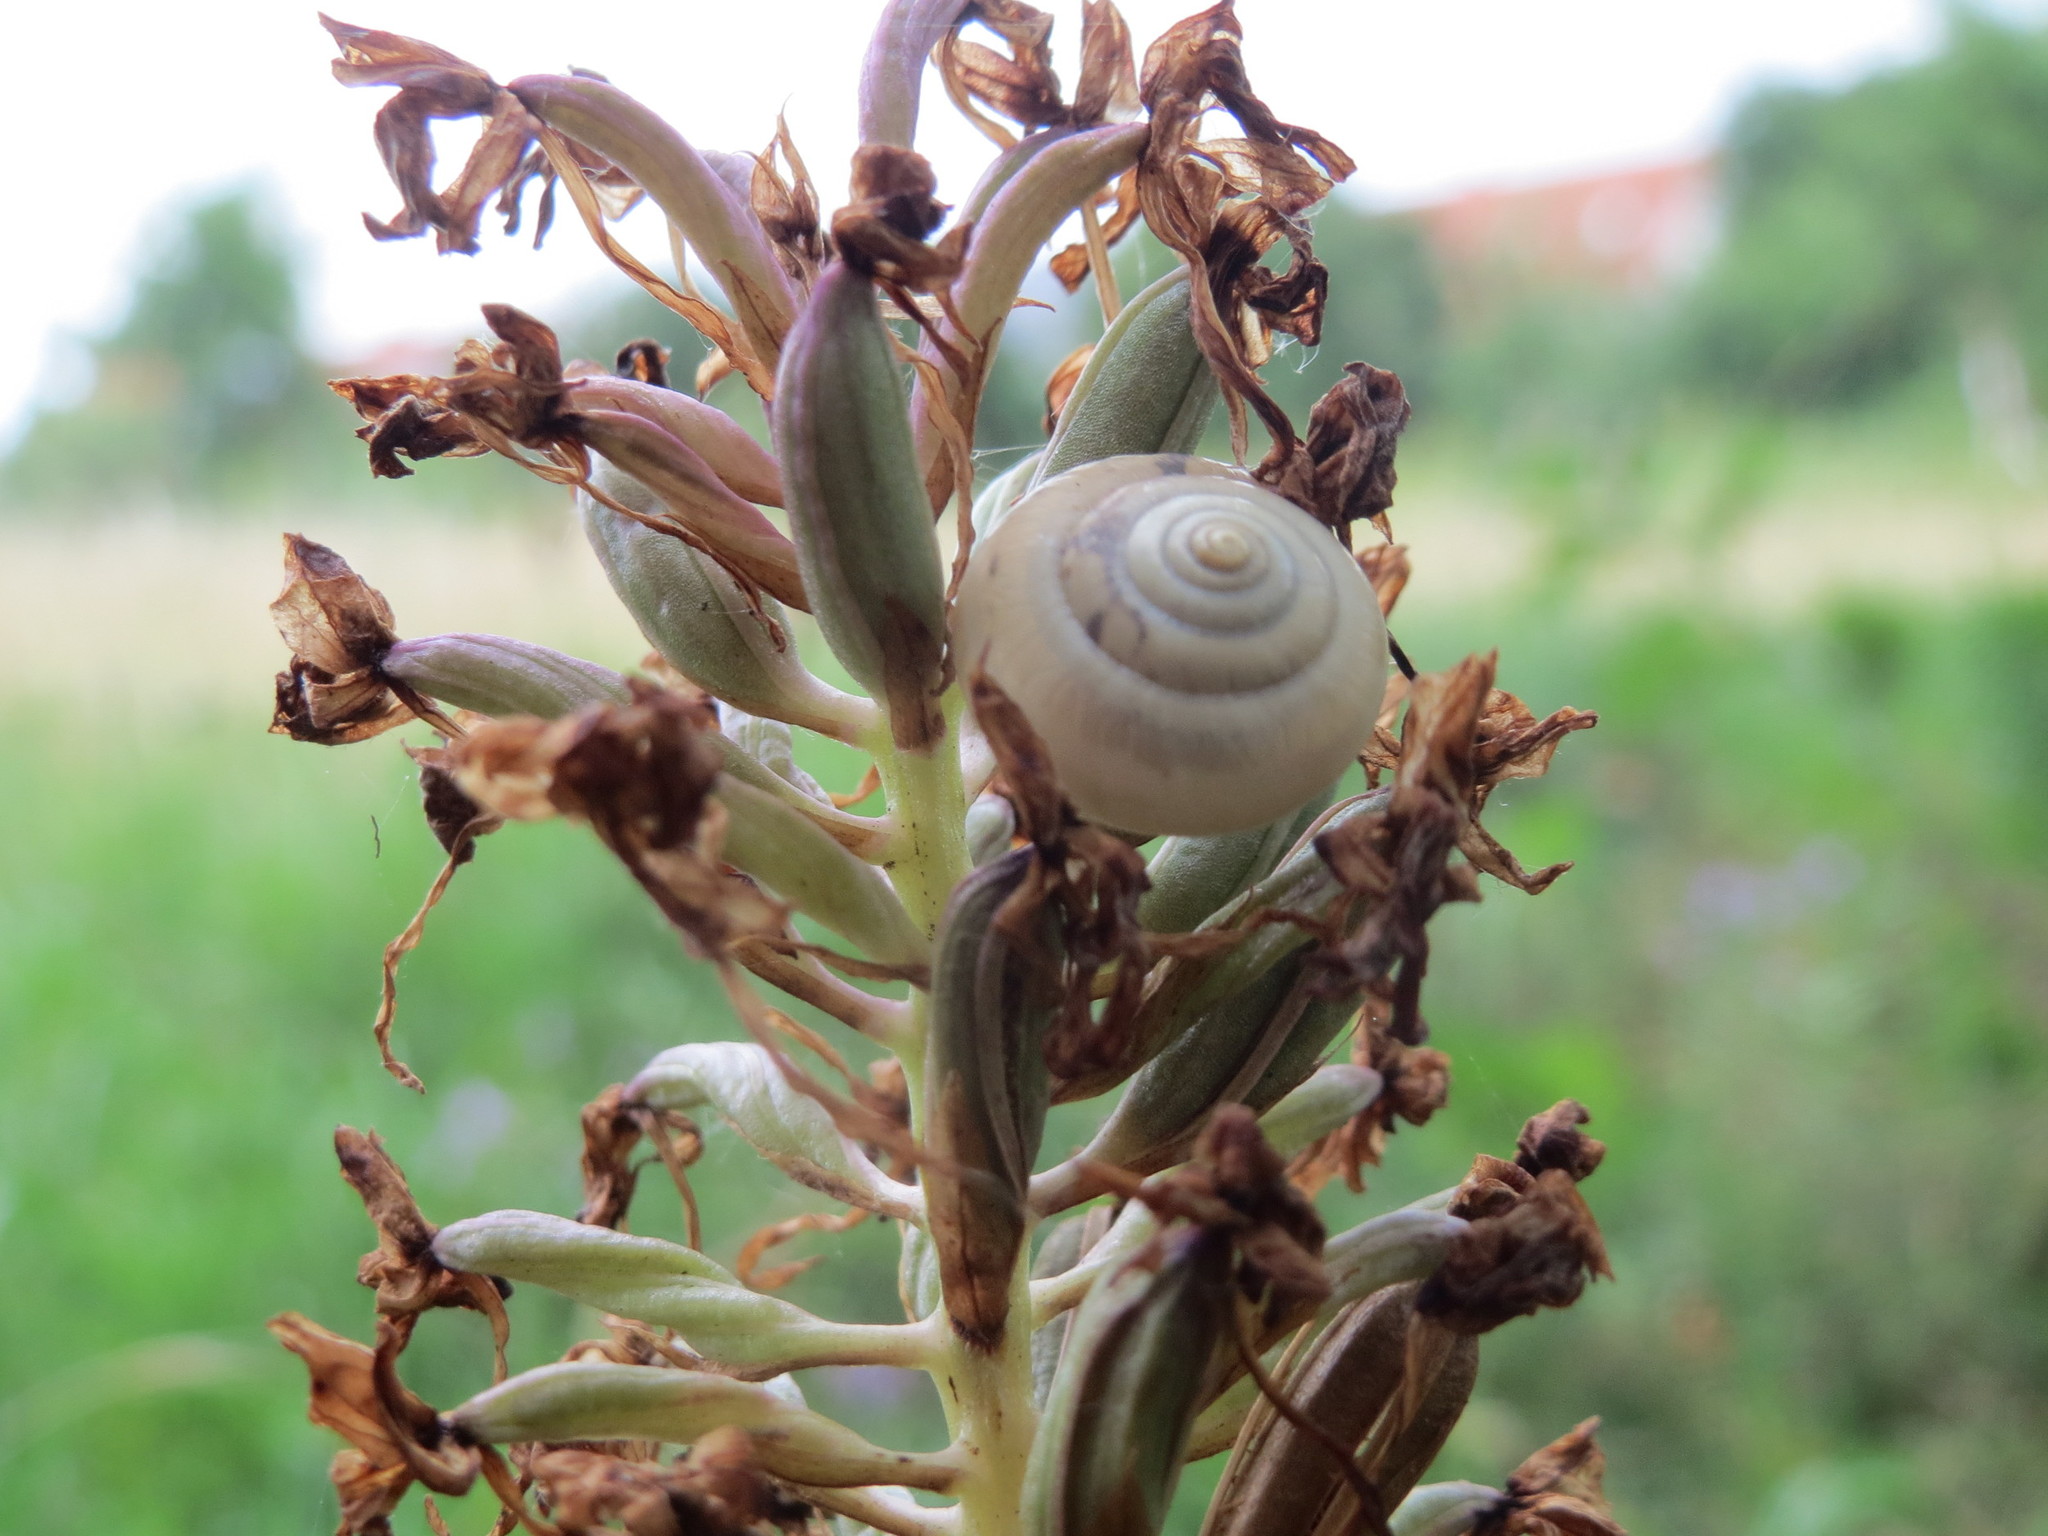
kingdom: Plantae
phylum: Tracheophyta
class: Liliopsida
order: Asparagales
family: Orchidaceae
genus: Anacamptis
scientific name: Anacamptis pyramidalis
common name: Pyramidal orchid
